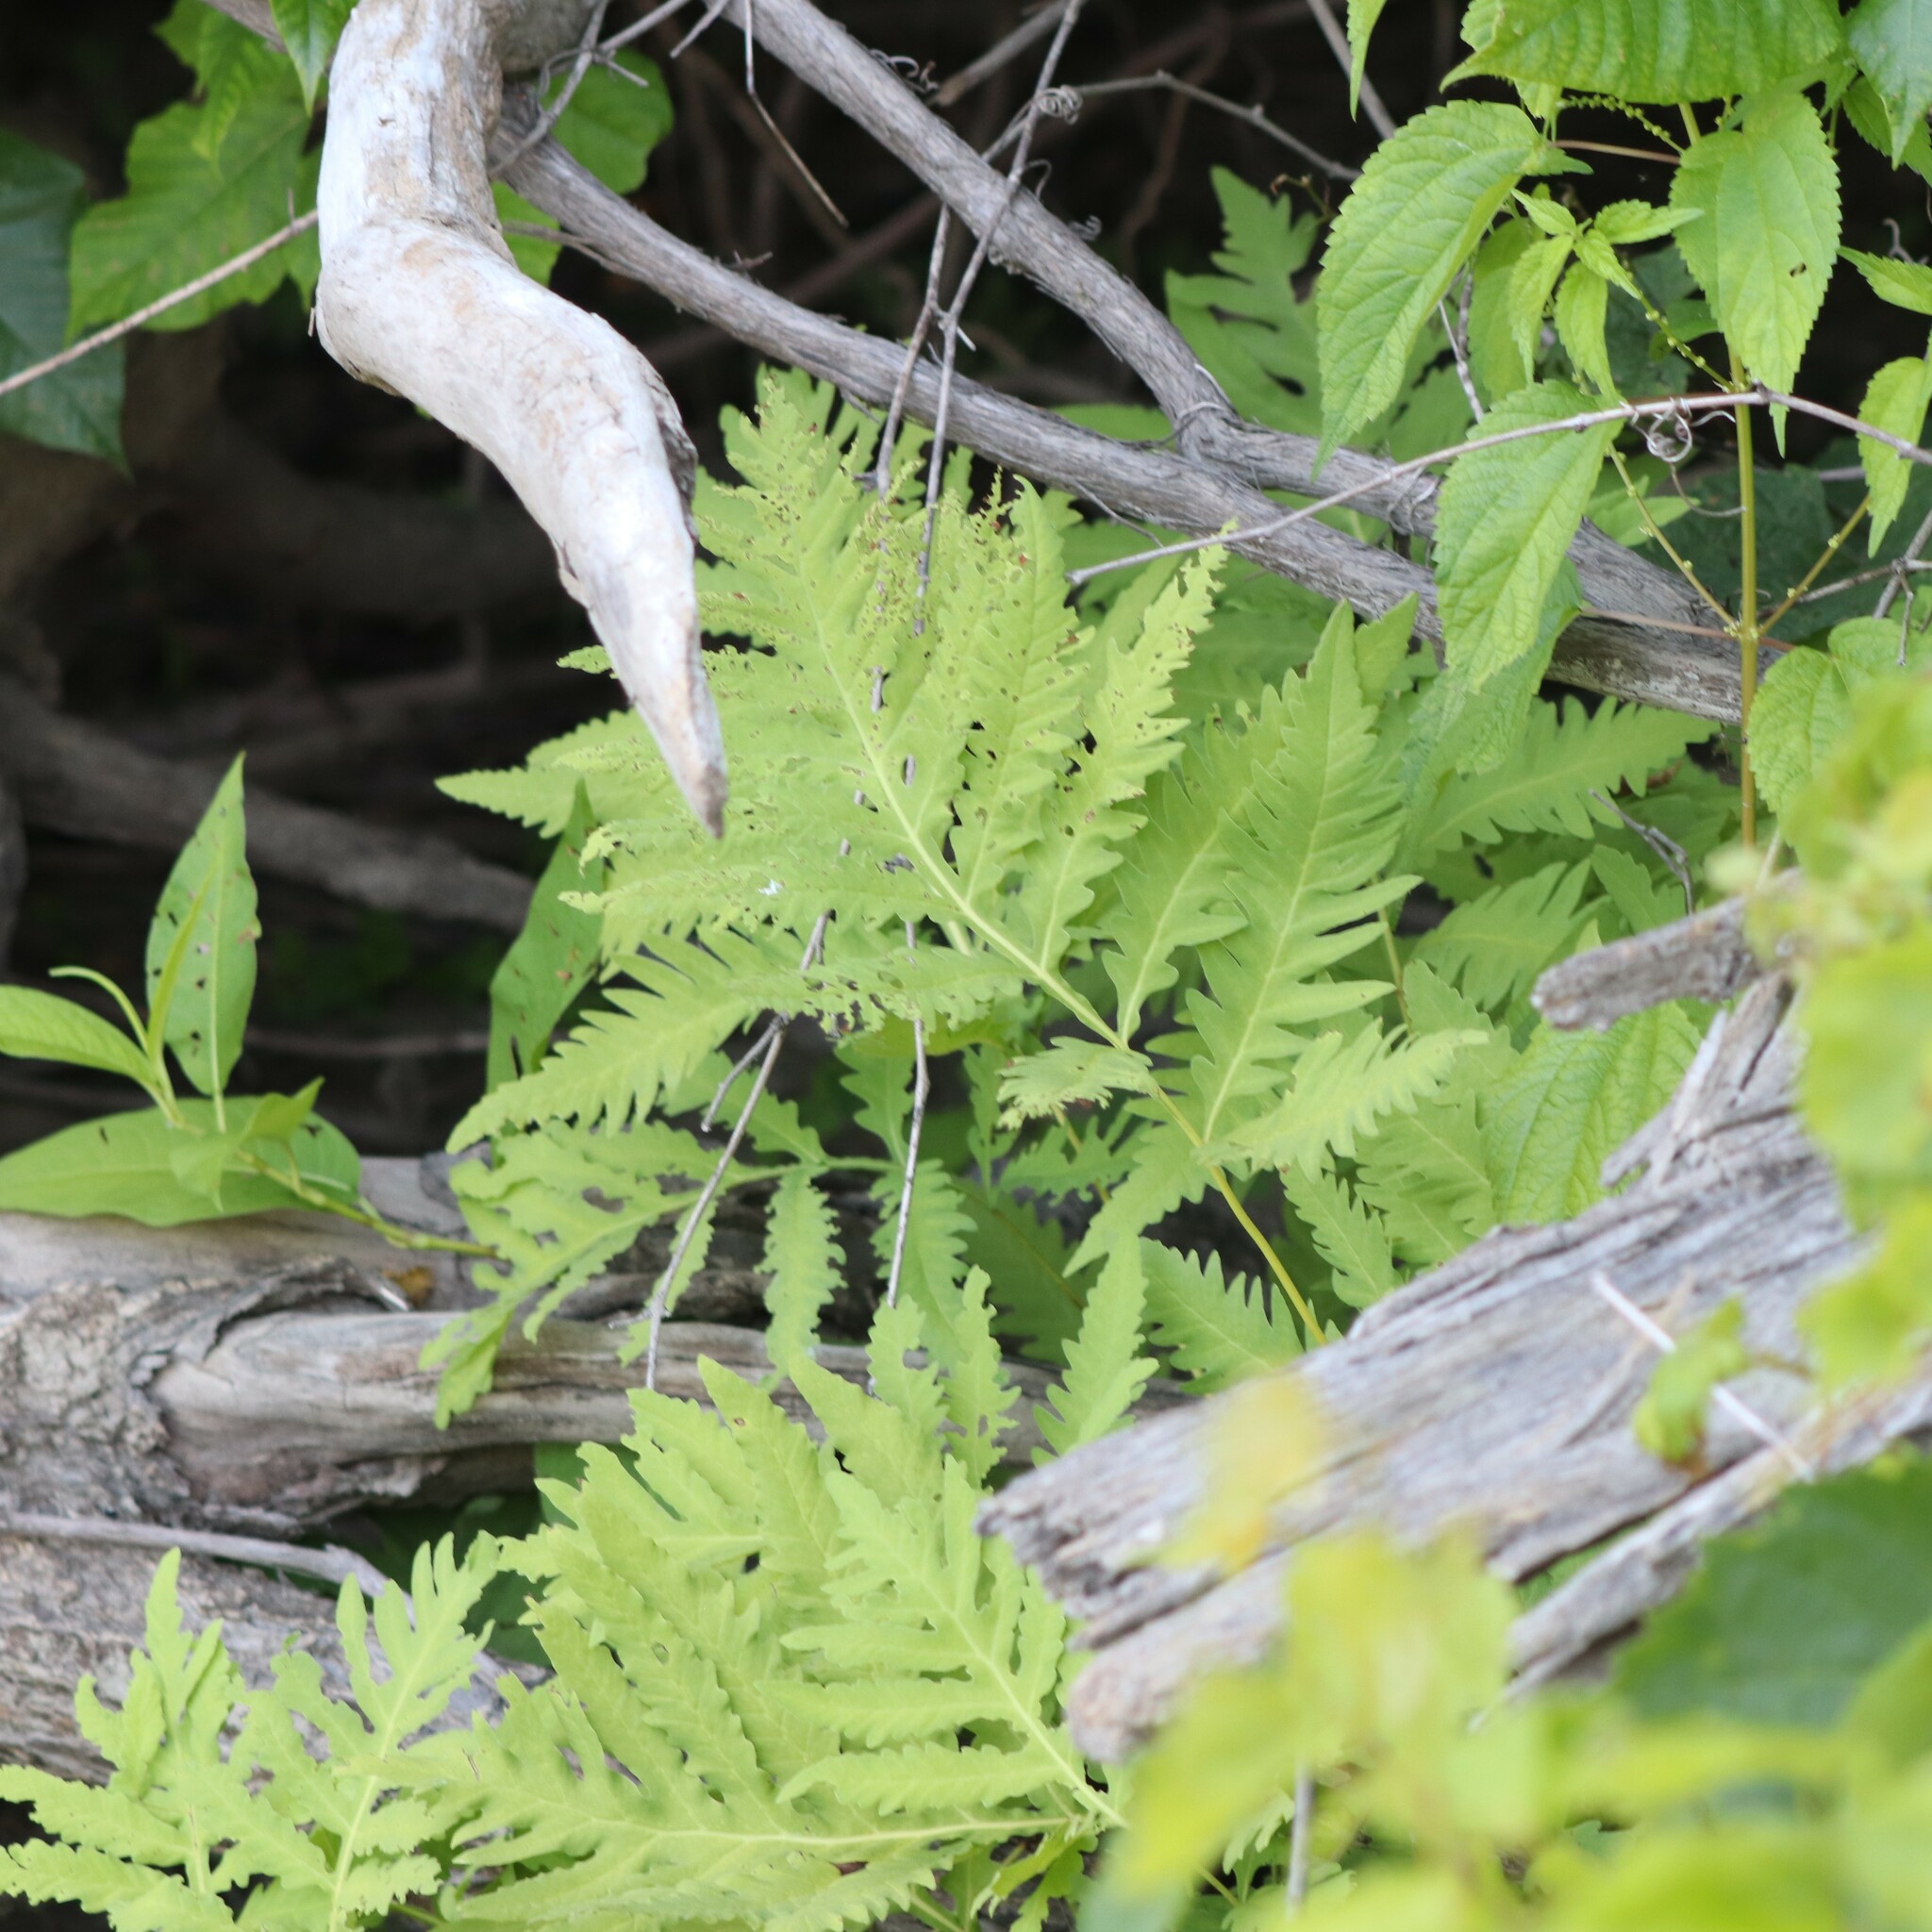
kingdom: Plantae
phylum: Tracheophyta
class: Polypodiopsida
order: Polypodiales
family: Onocleaceae
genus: Onoclea
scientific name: Onoclea sensibilis
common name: Sensitive fern
